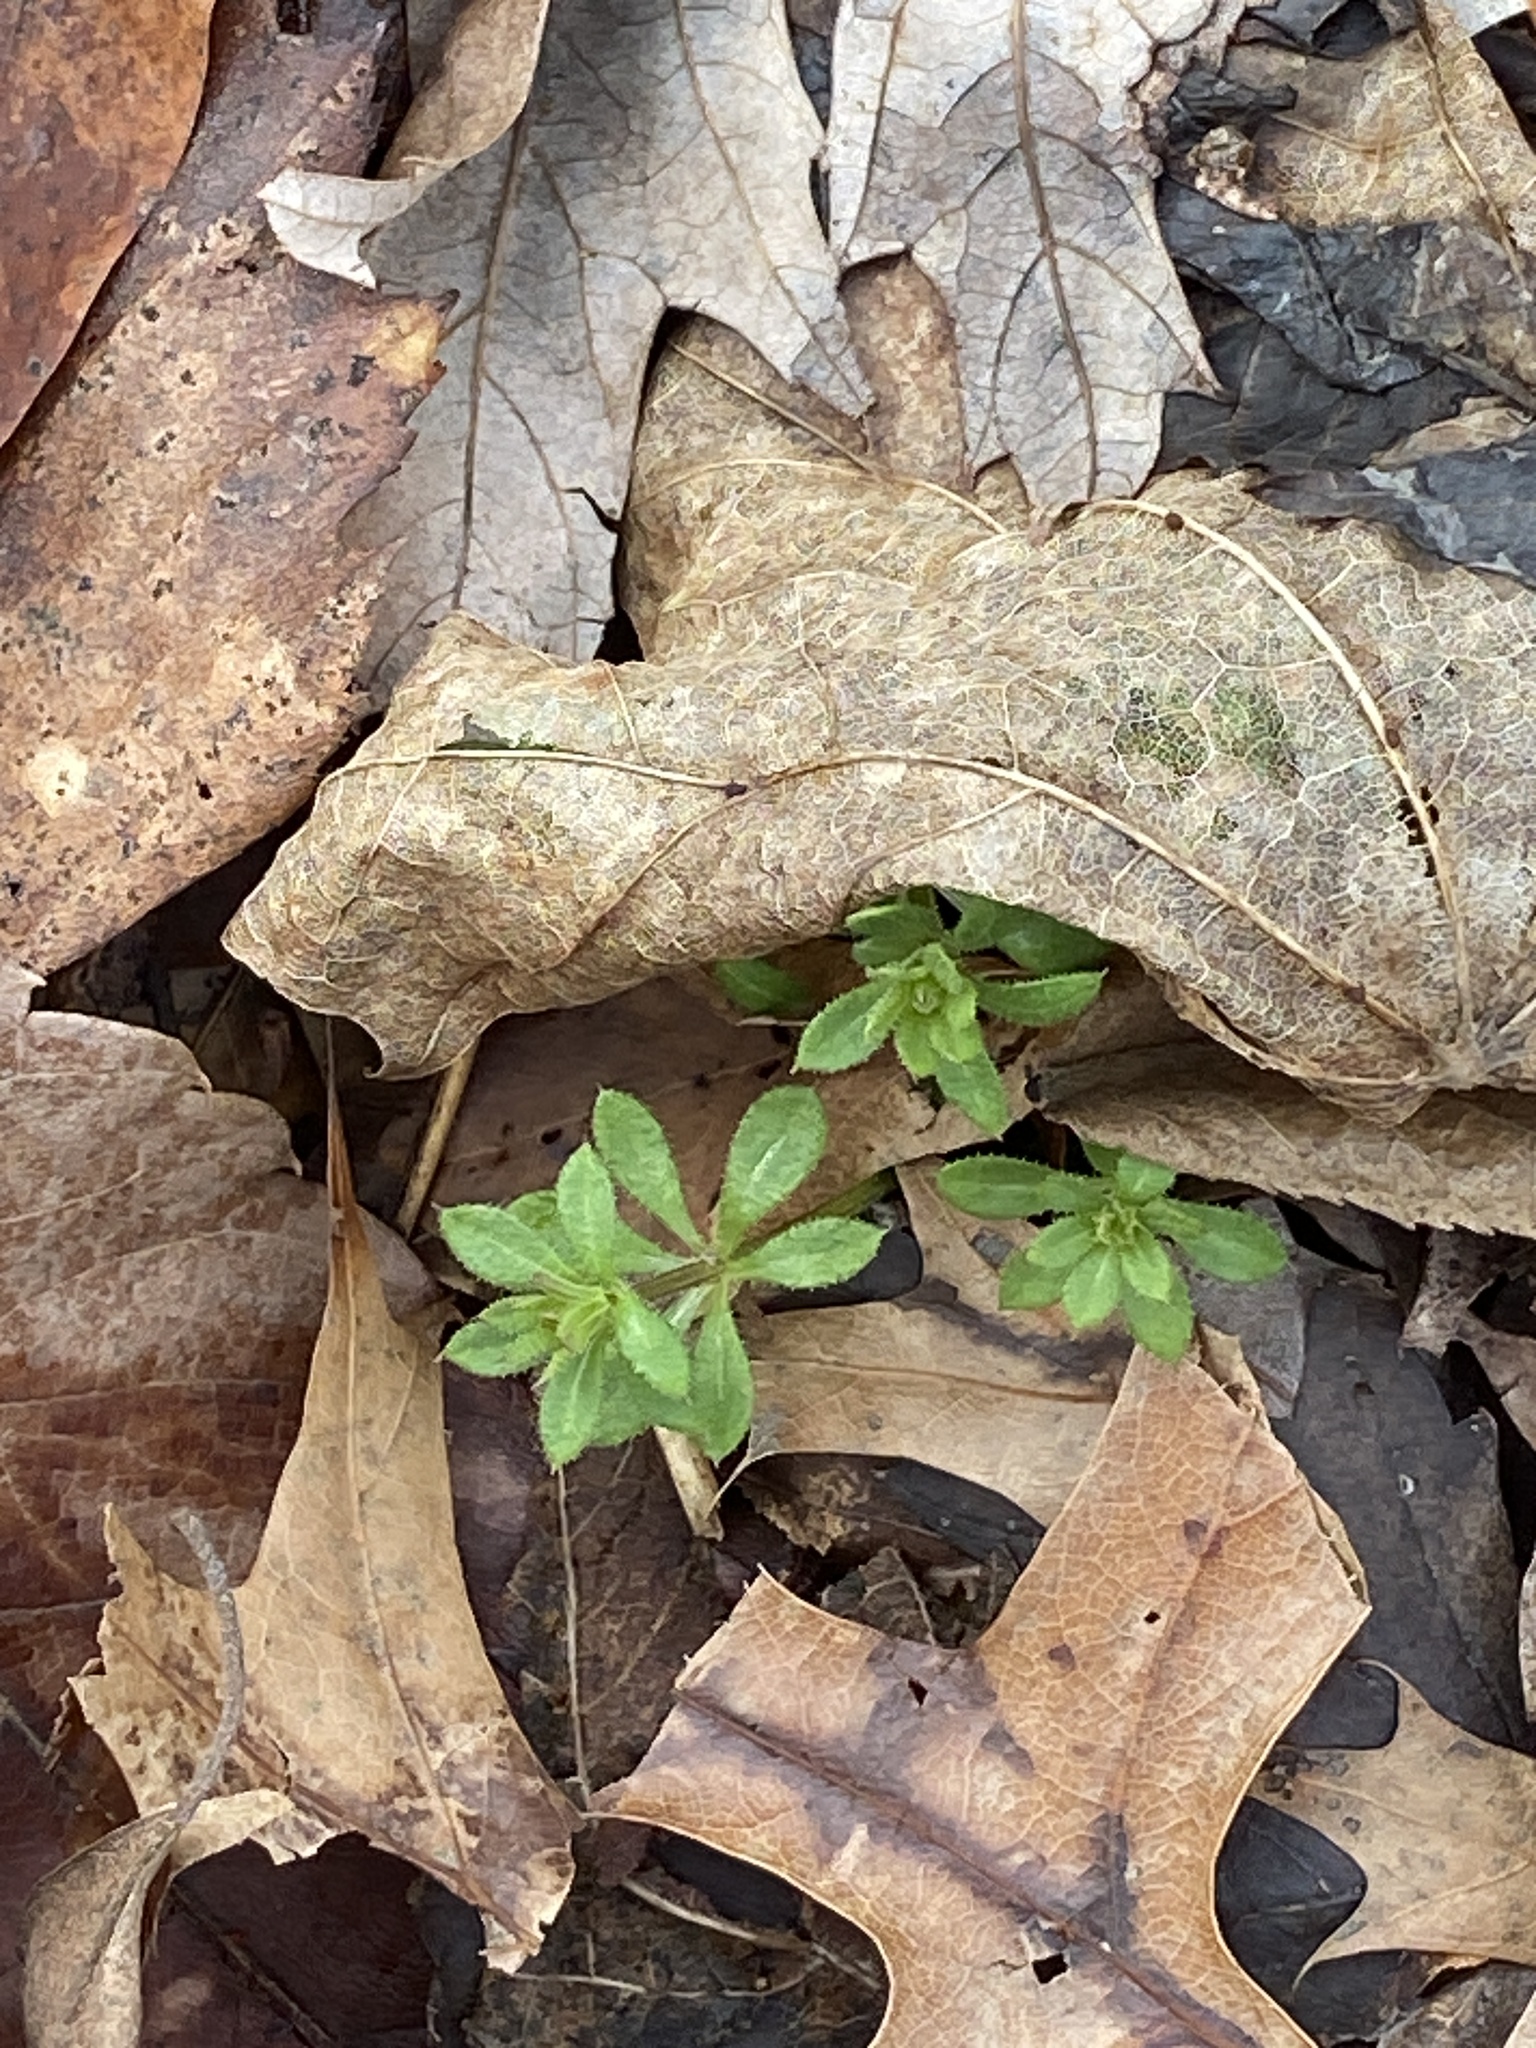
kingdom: Plantae
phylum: Tracheophyta
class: Magnoliopsida
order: Gentianales
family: Rubiaceae
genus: Galium
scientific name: Galium aparine
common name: Cleavers
